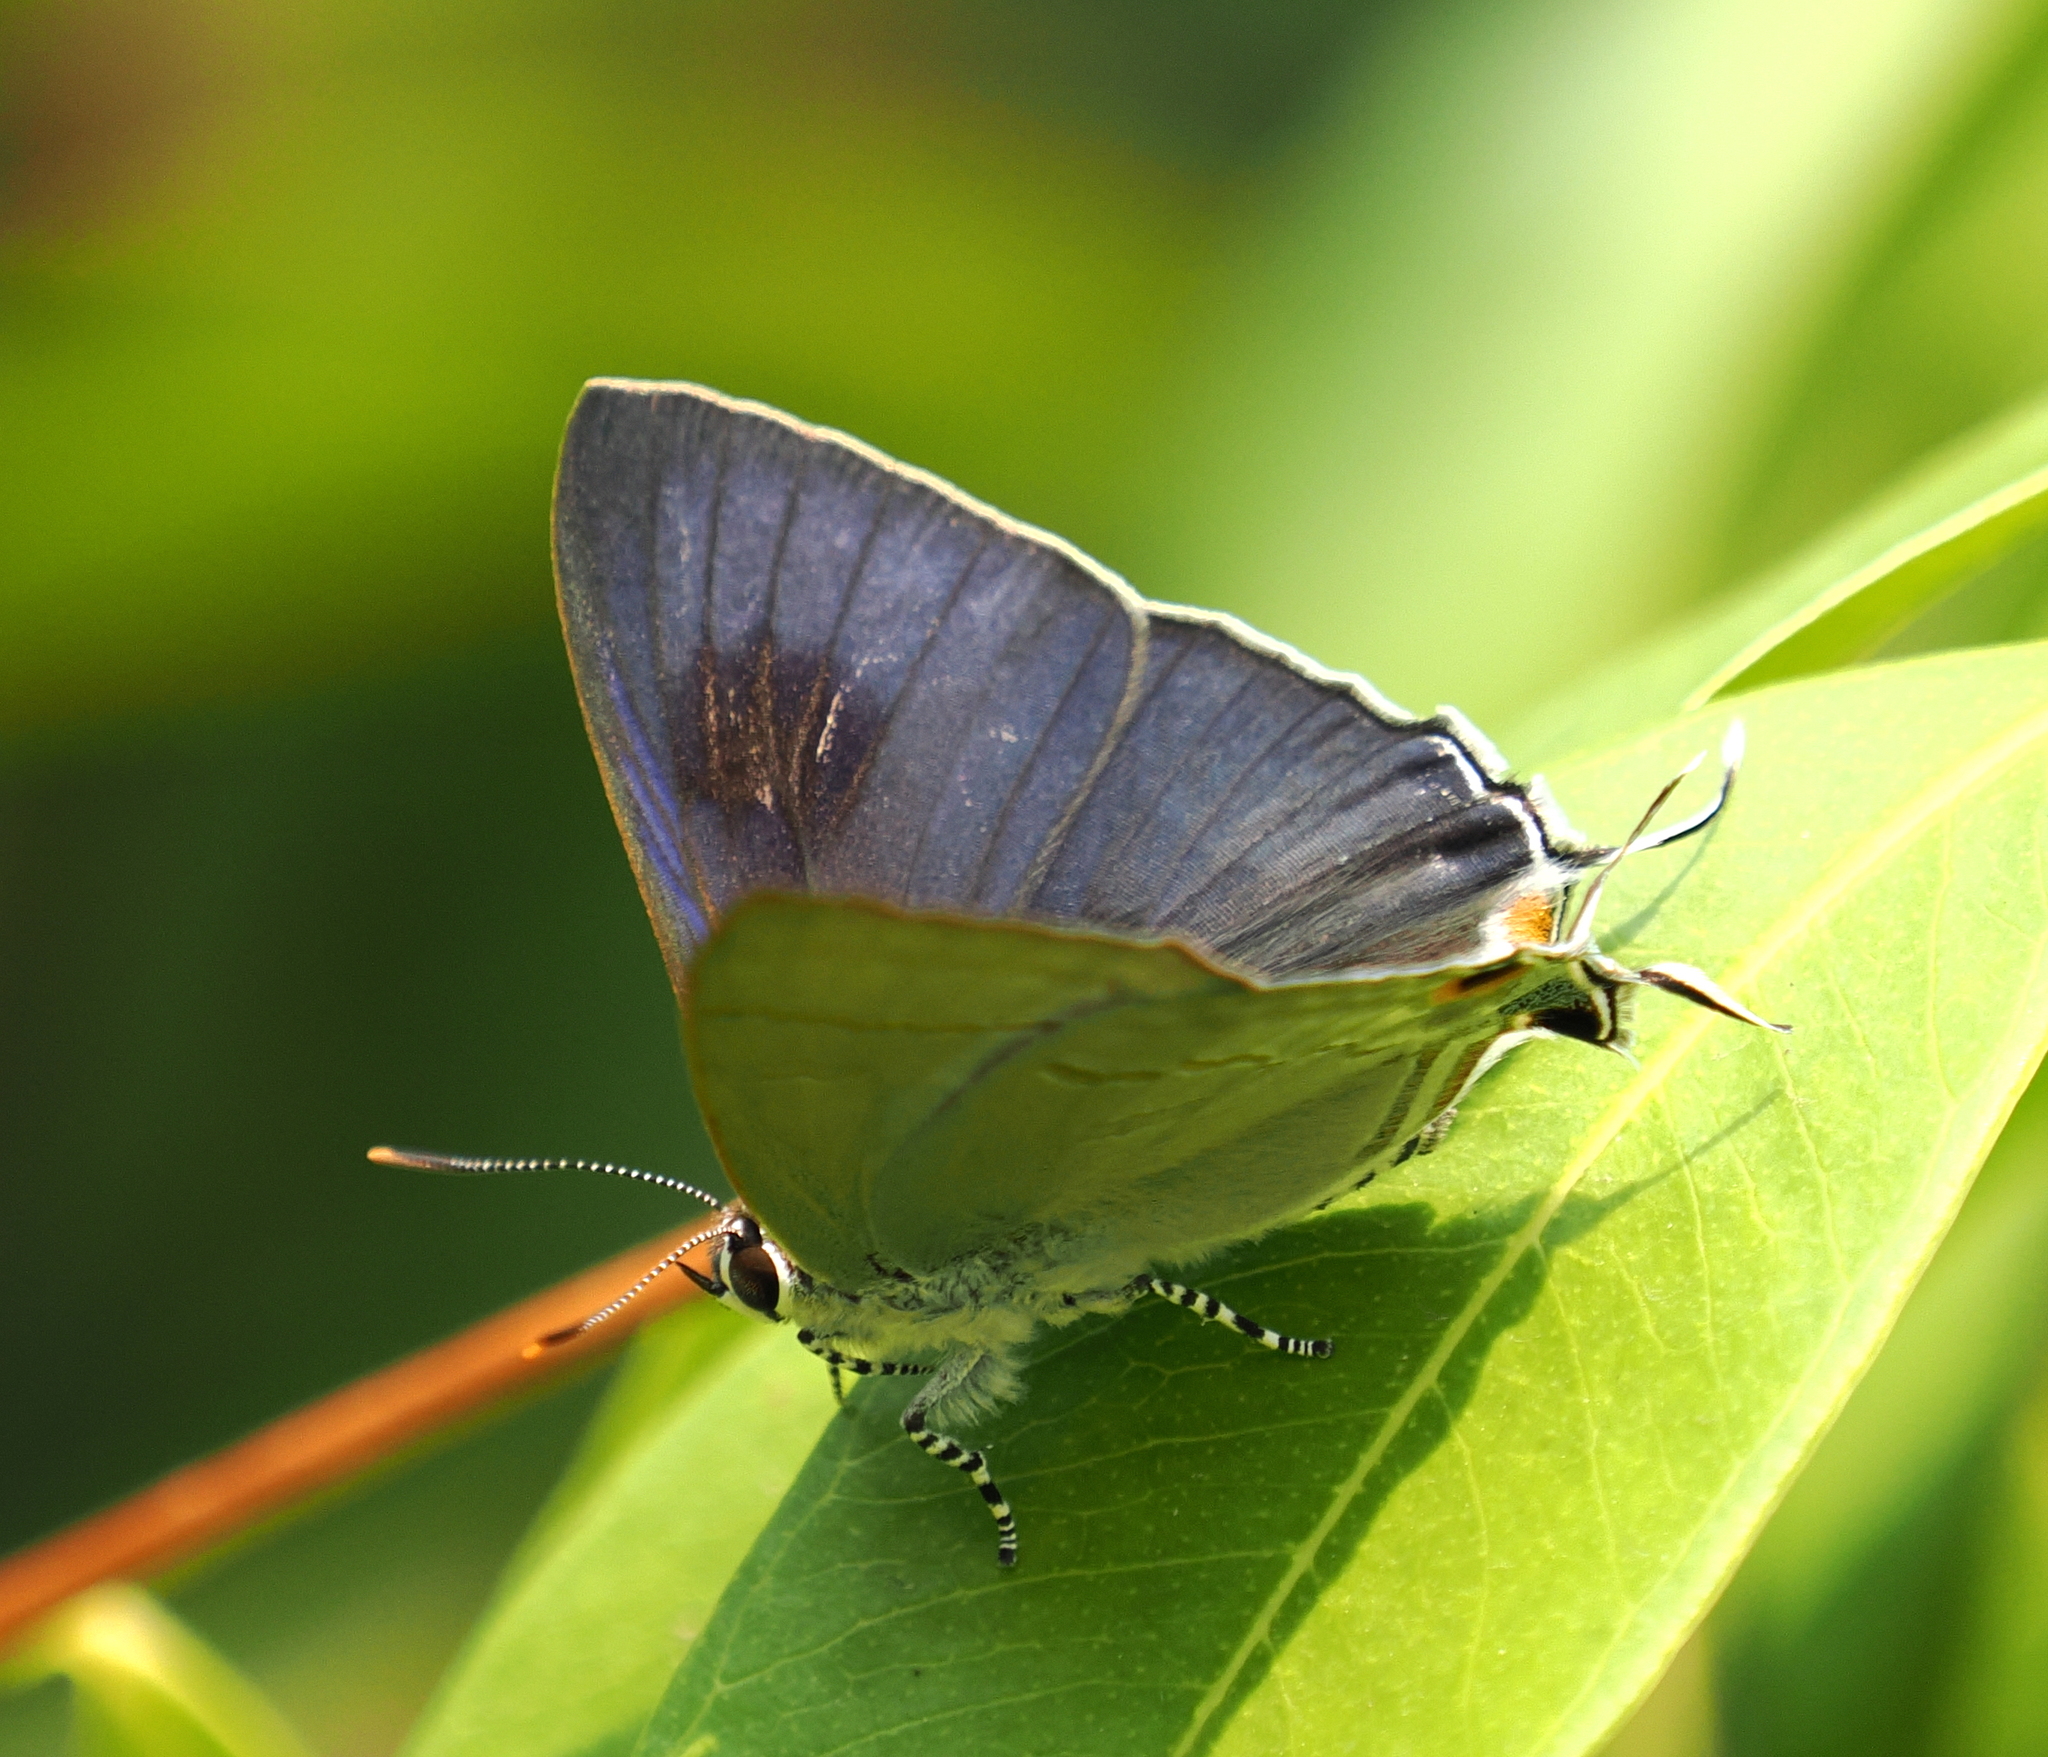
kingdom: Animalia
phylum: Arthropoda
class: Insecta
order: Lepidoptera
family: Lycaenidae
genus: Hypolycaena
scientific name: Hypolycaena erylus
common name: Common tit
